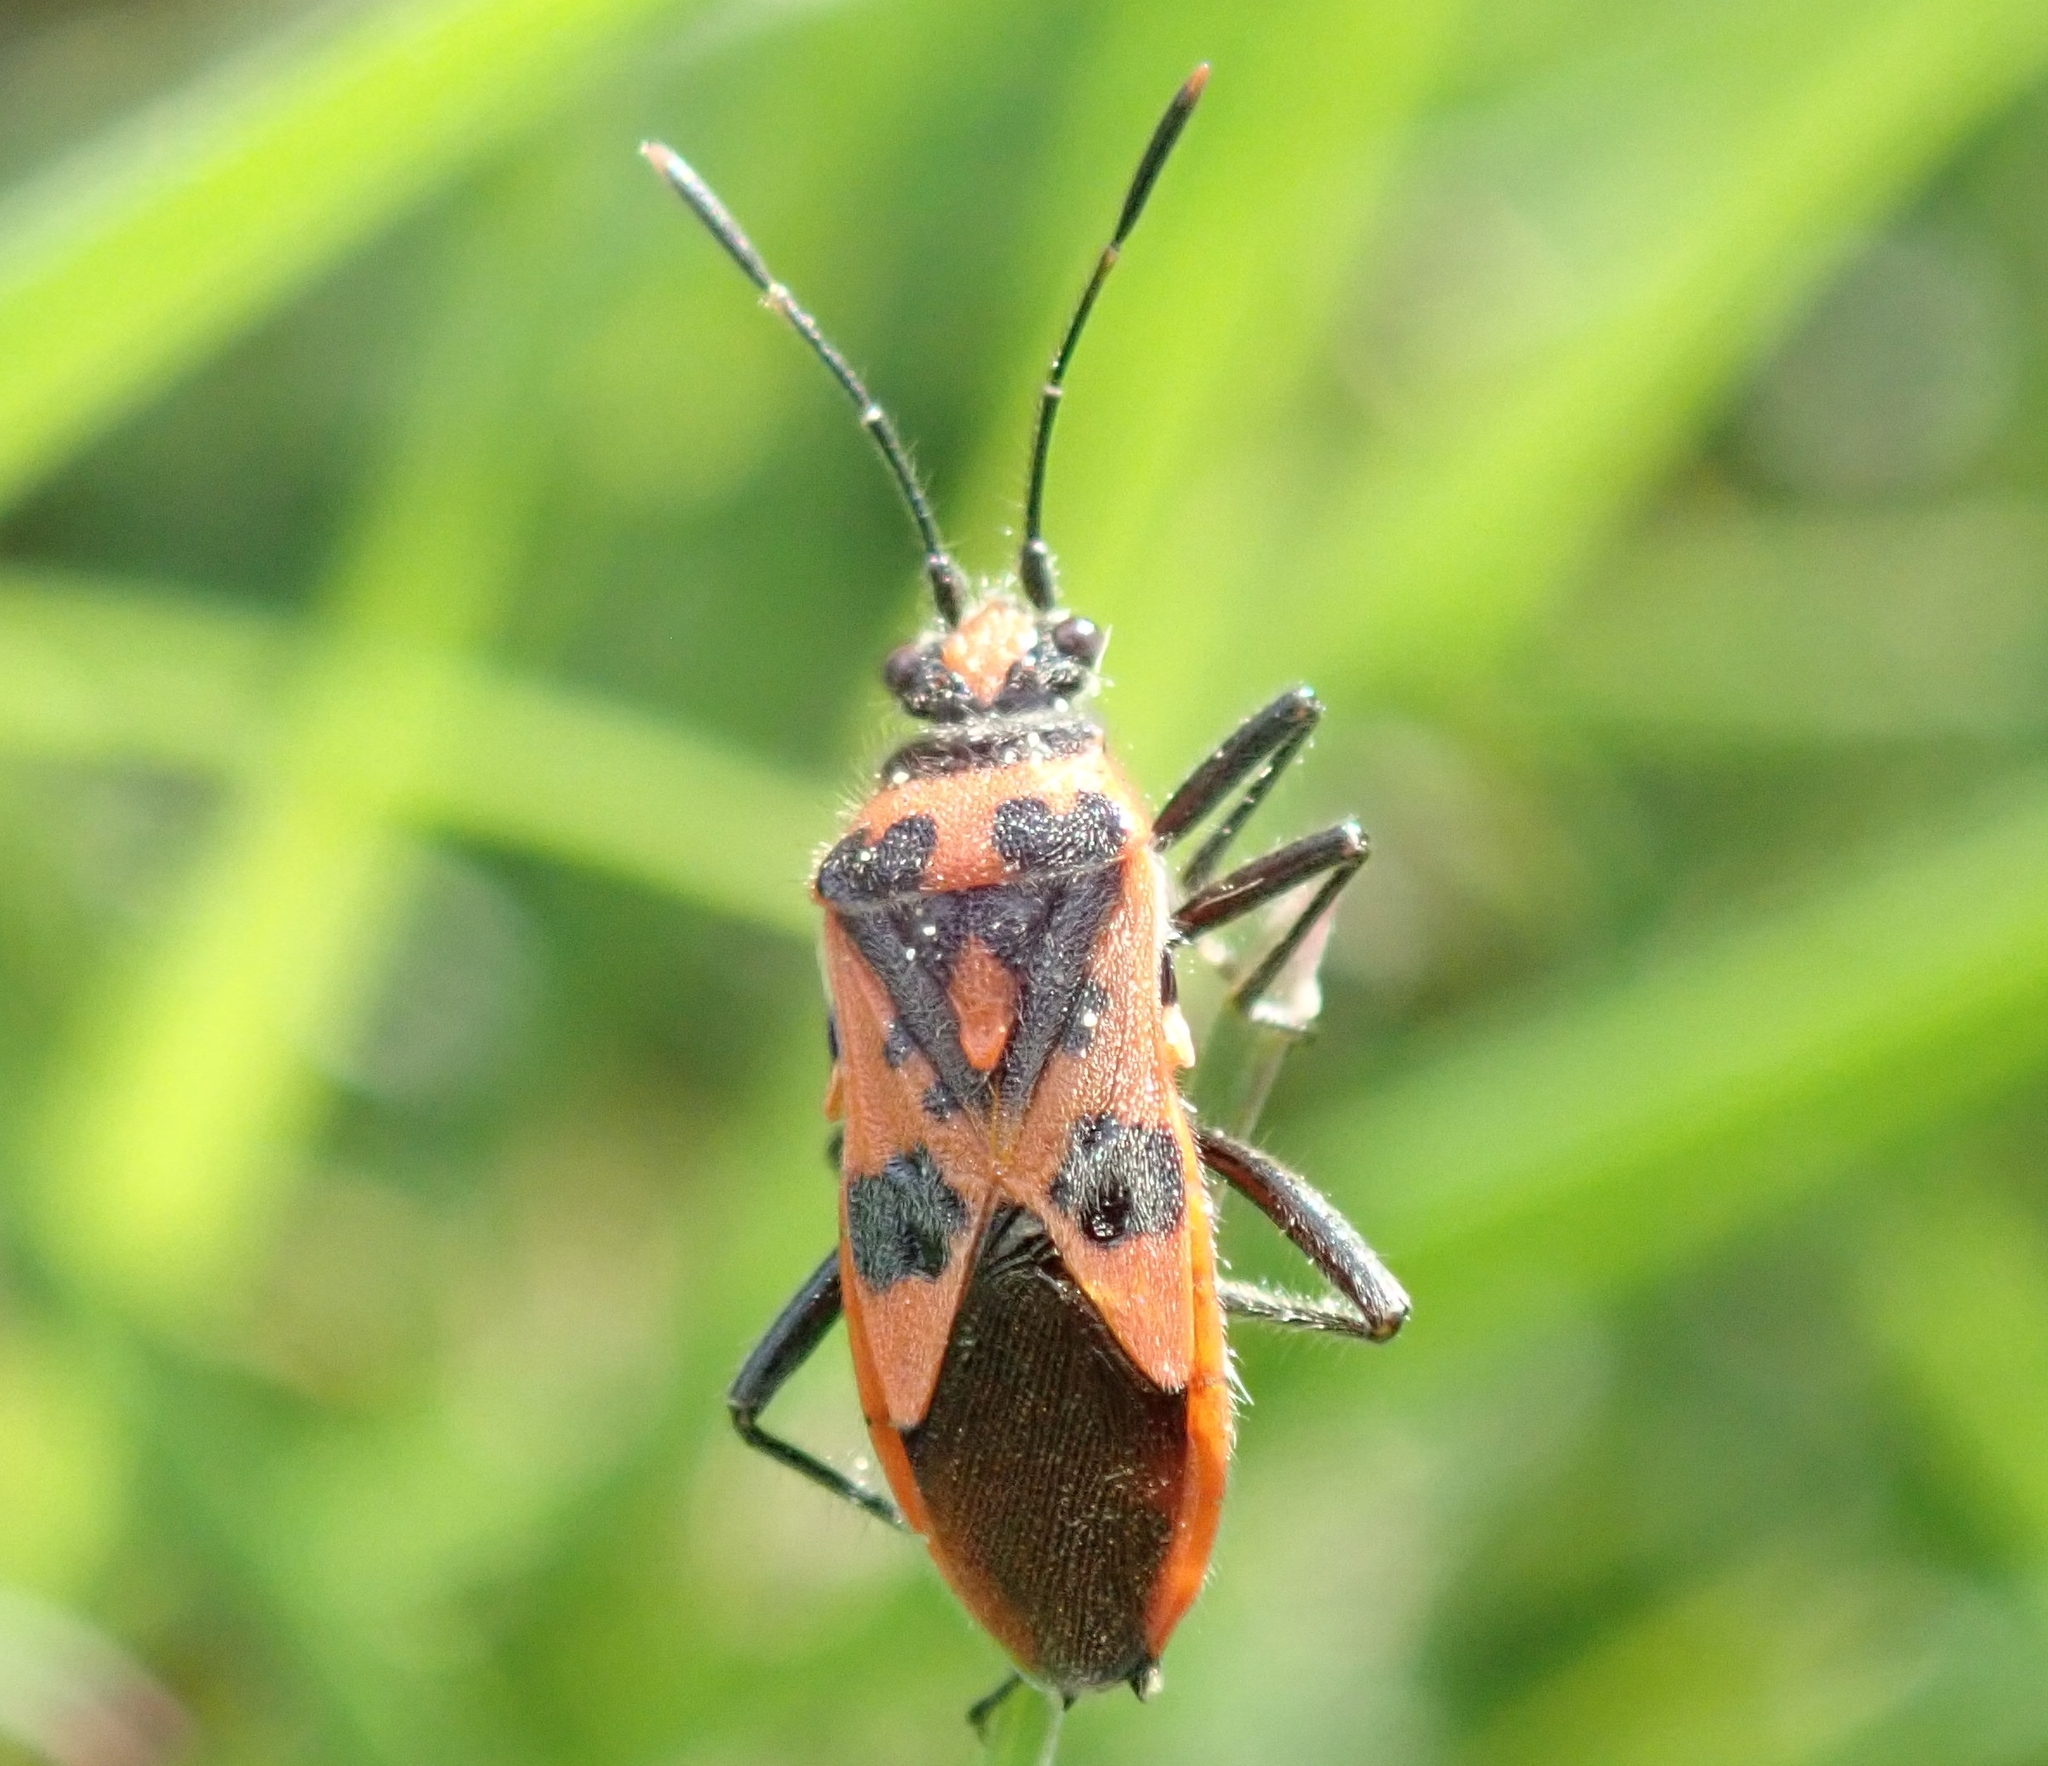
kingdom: Animalia
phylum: Arthropoda
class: Insecta
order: Hemiptera
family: Rhopalidae
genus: Corizus
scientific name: Corizus hyoscyami
